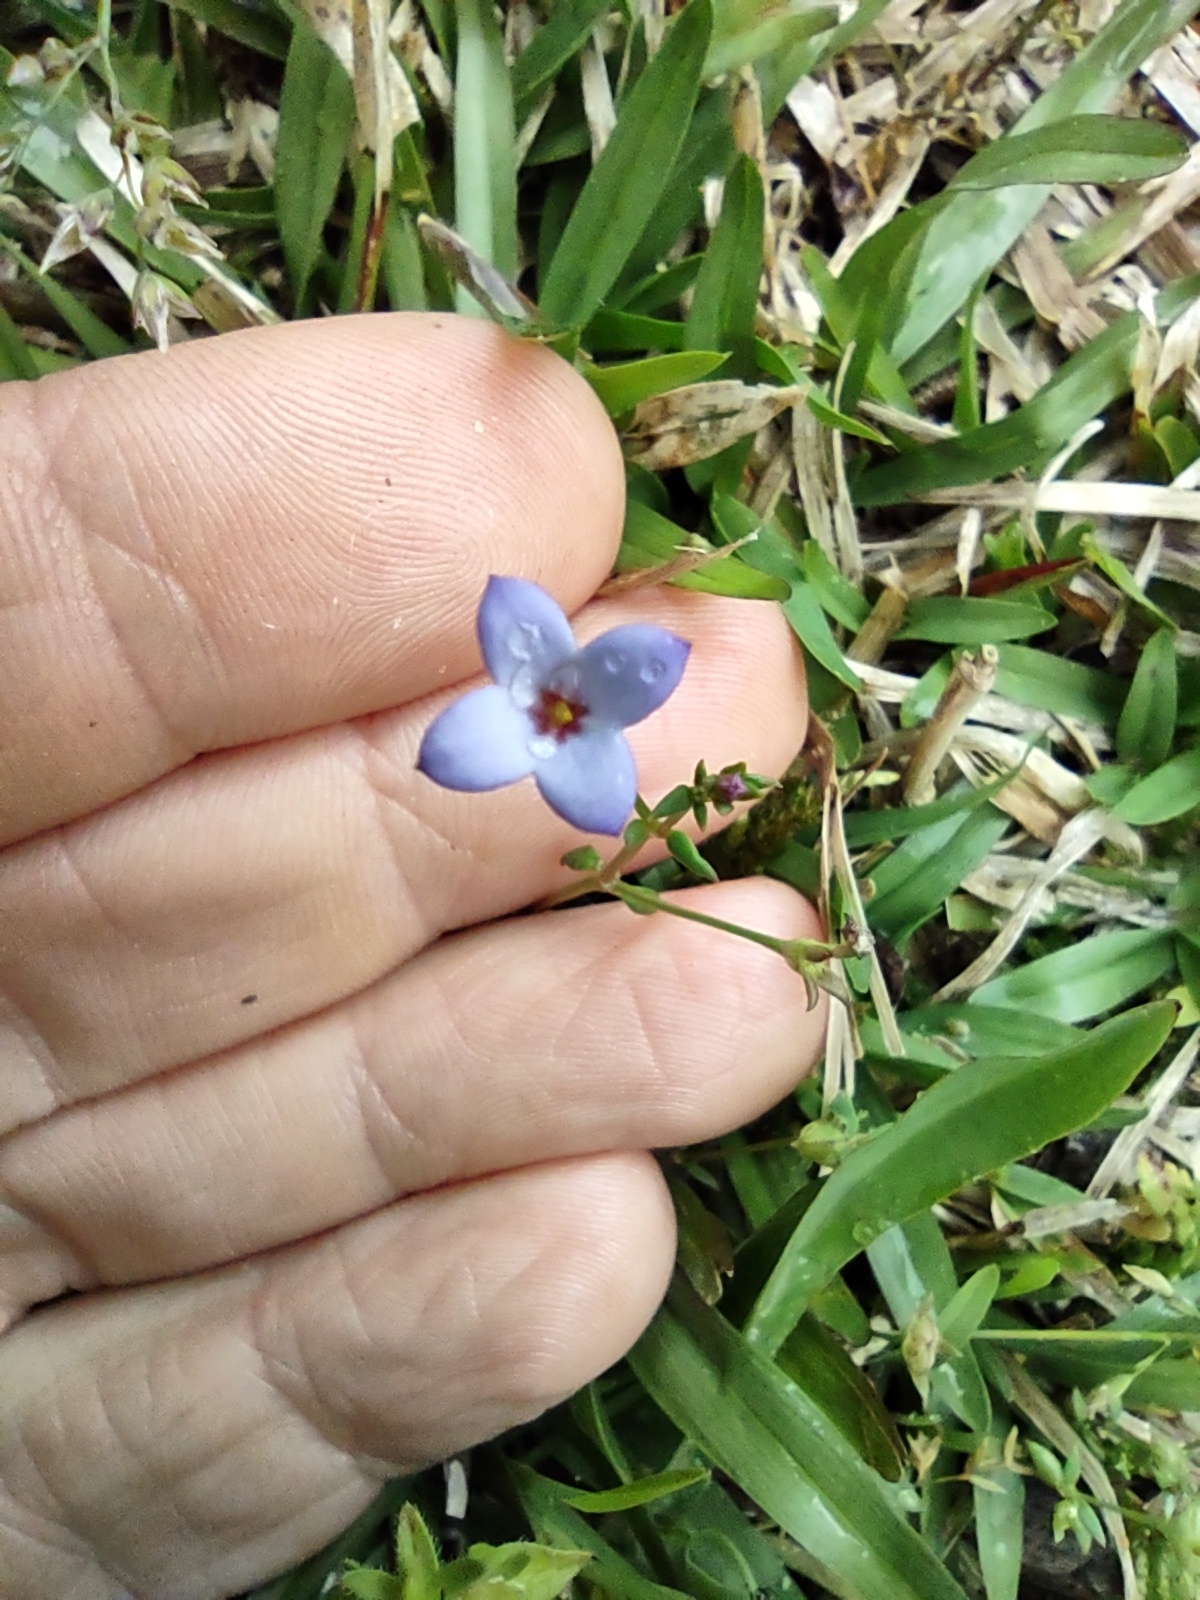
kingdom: Plantae
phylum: Tracheophyta
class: Magnoliopsida
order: Gentianales
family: Rubiaceae
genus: Houstonia
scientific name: Houstonia pusilla
